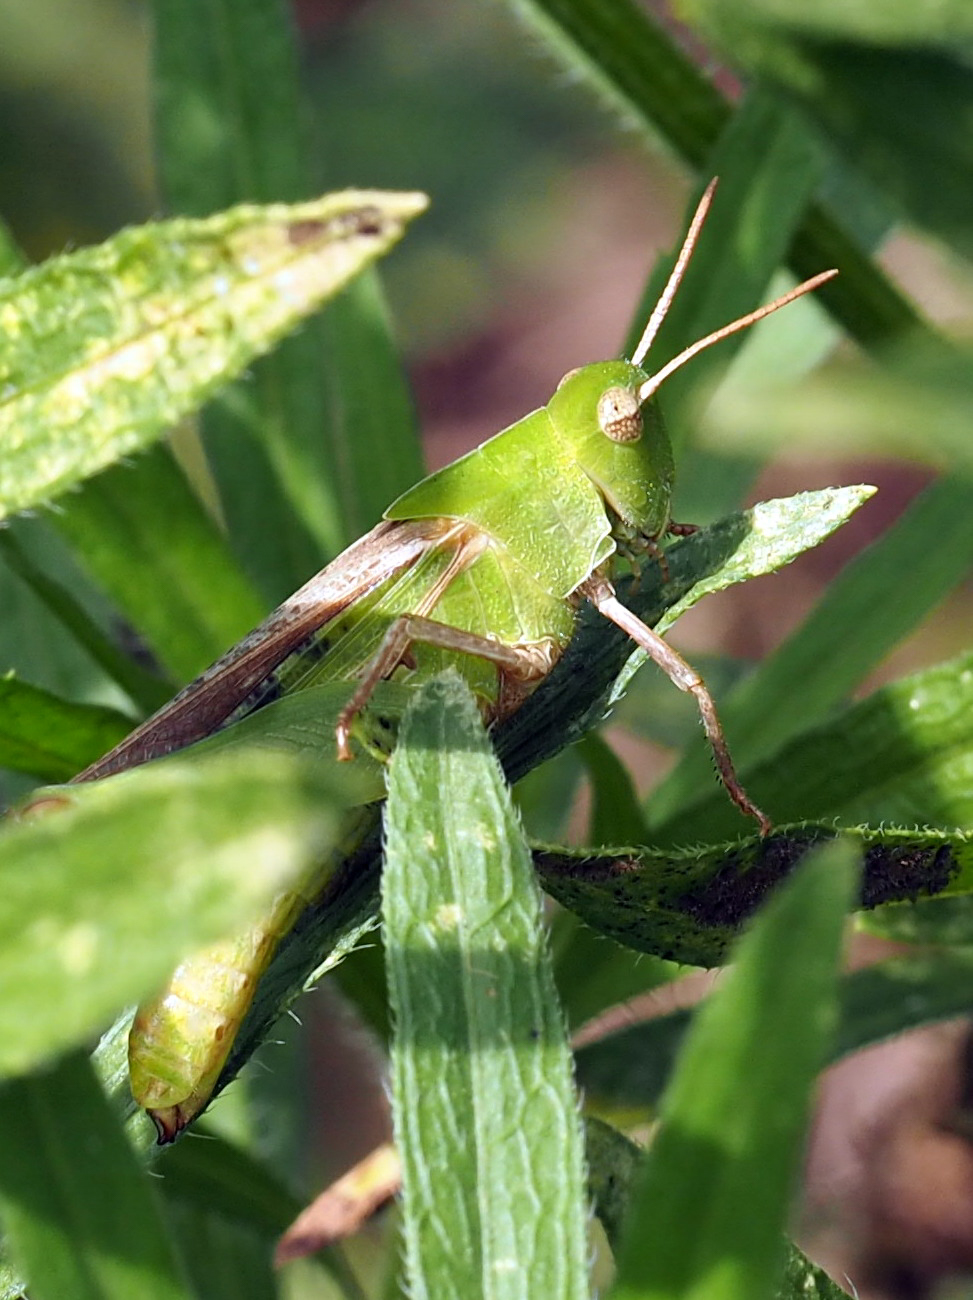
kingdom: Animalia
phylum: Arthropoda
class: Insecta
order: Orthoptera
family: Acrididae
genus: Chortophaga
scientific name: Chortophaga viridifasciata
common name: Green-striped grasshopper
